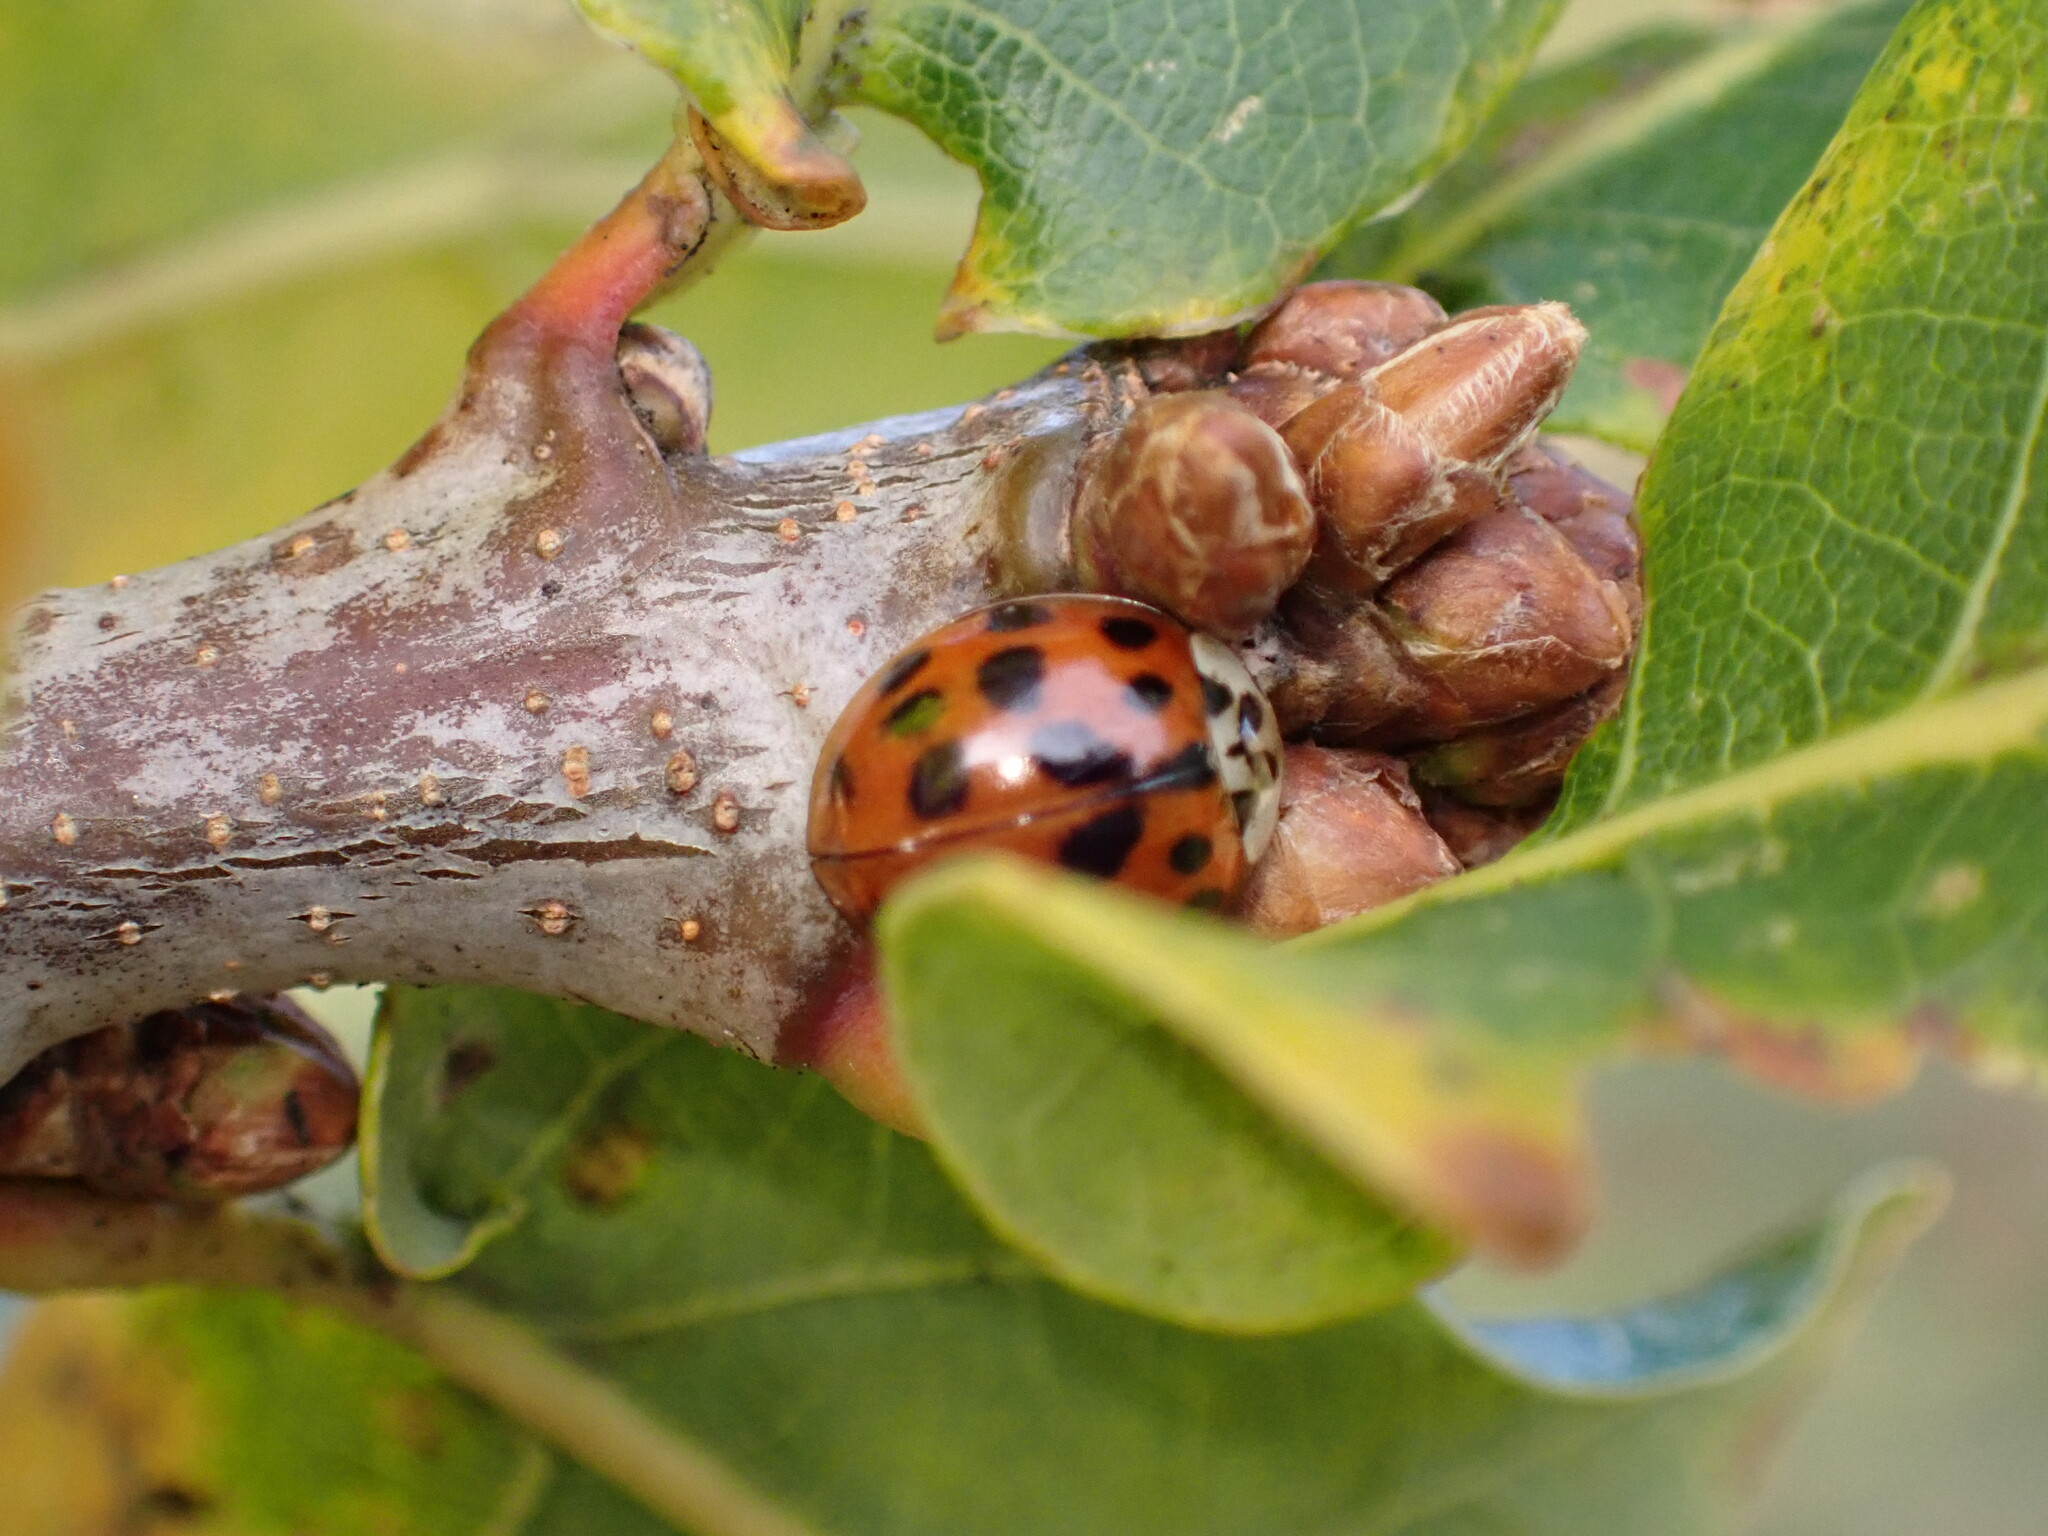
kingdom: Animalia
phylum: Arthropoda
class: Insecta
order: Coleoptera
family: Coccinellidae
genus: Harmonia
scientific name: Harmonia axyridis
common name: Harlequin ladybird
